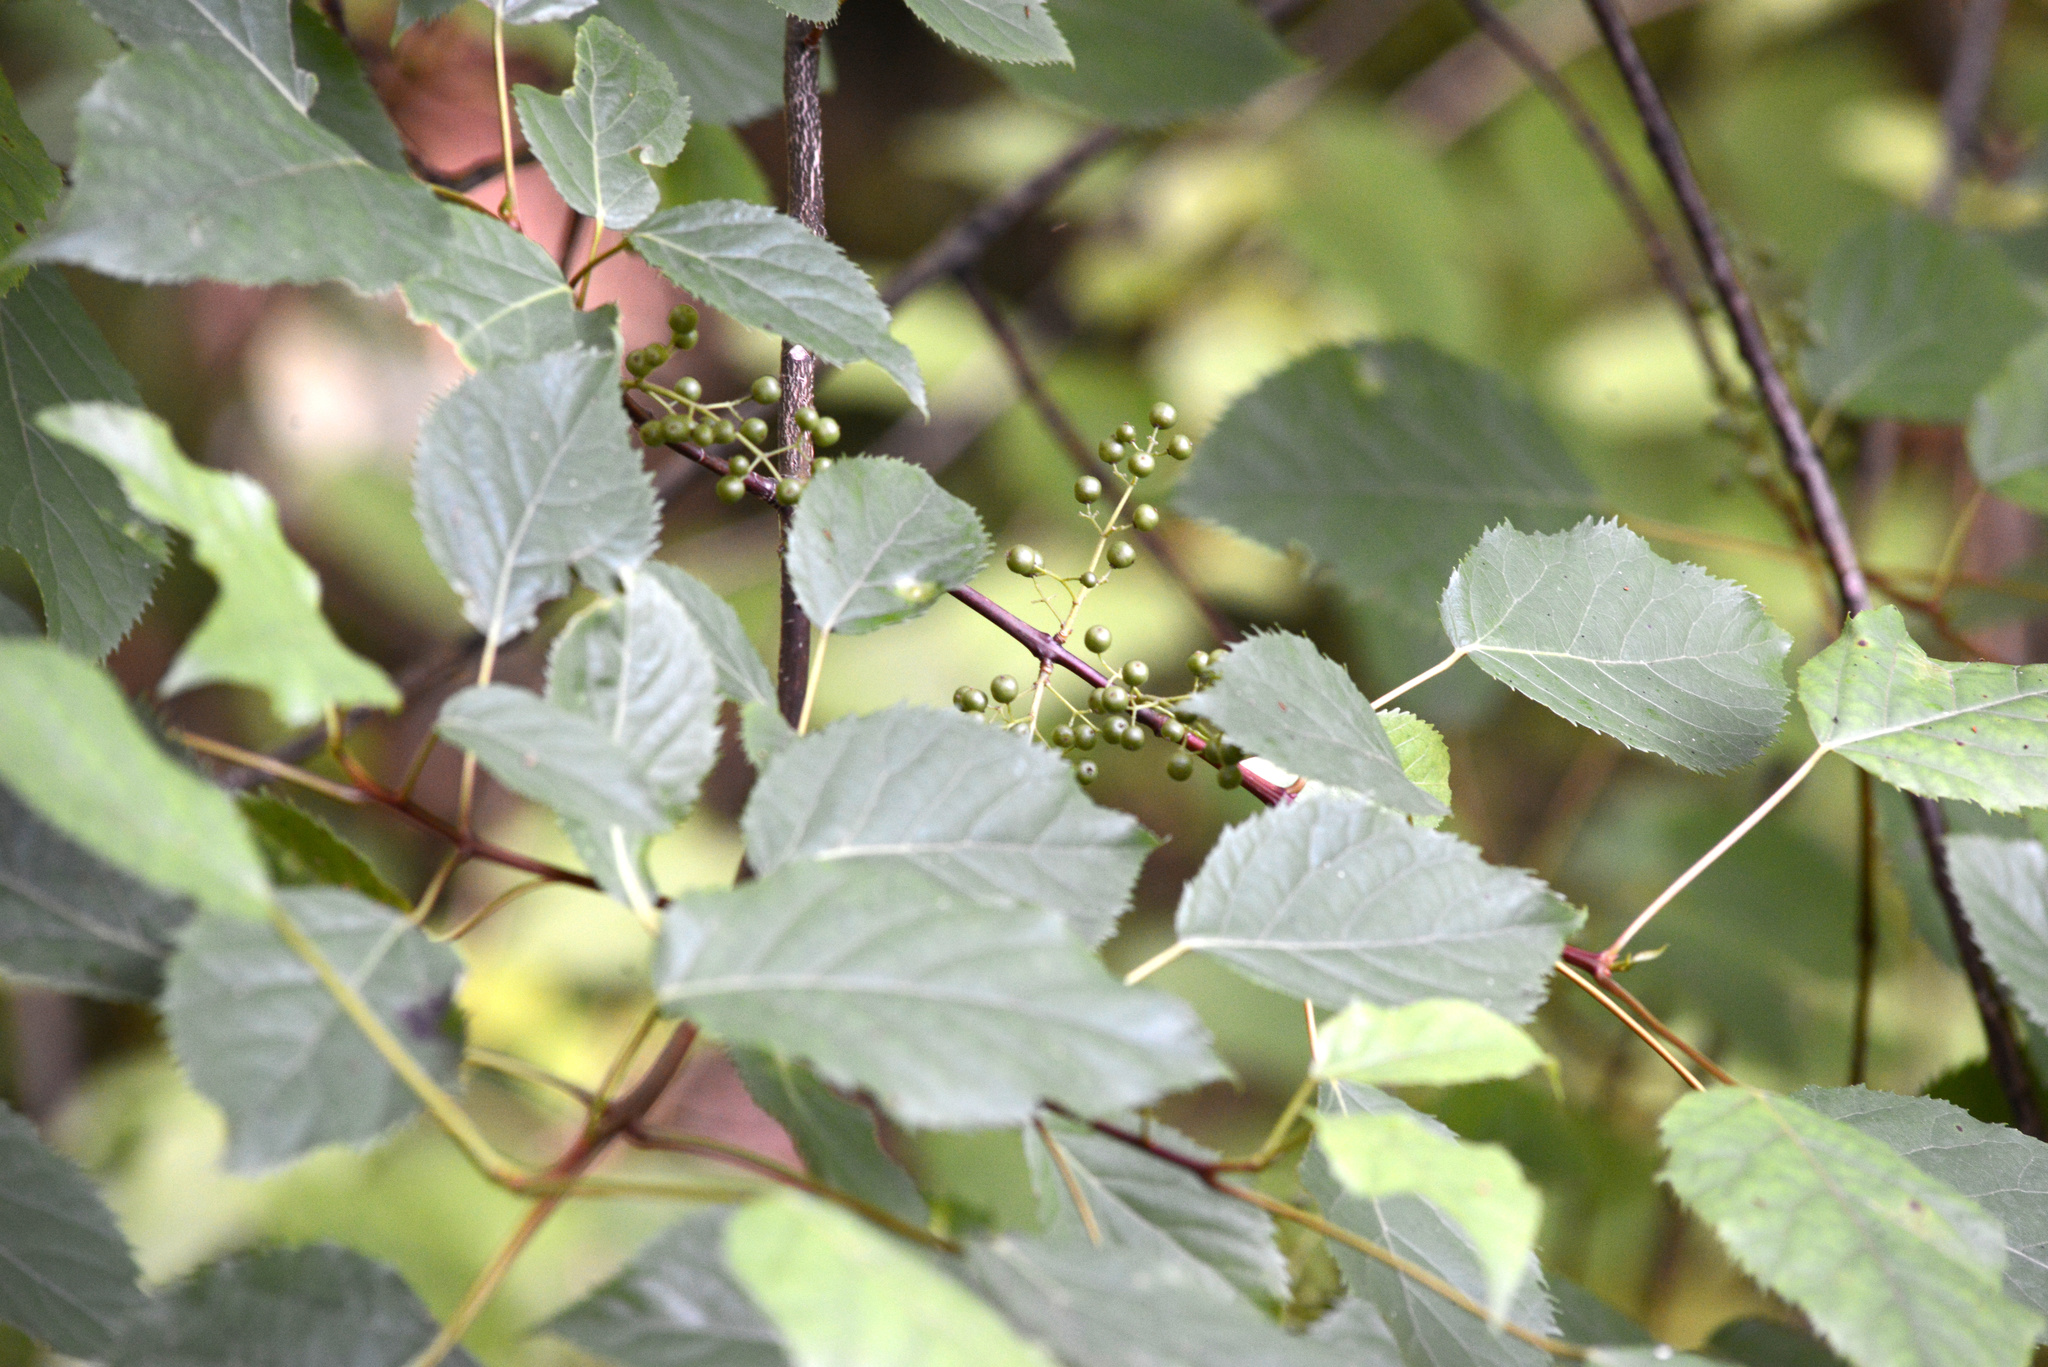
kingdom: Plantae
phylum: Tracheophyta
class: Magnoliopsida
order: Oxalidales
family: Elaeocarpaceae
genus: Aristotelia
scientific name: Aristotelia serrata
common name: New zealand wineberry
